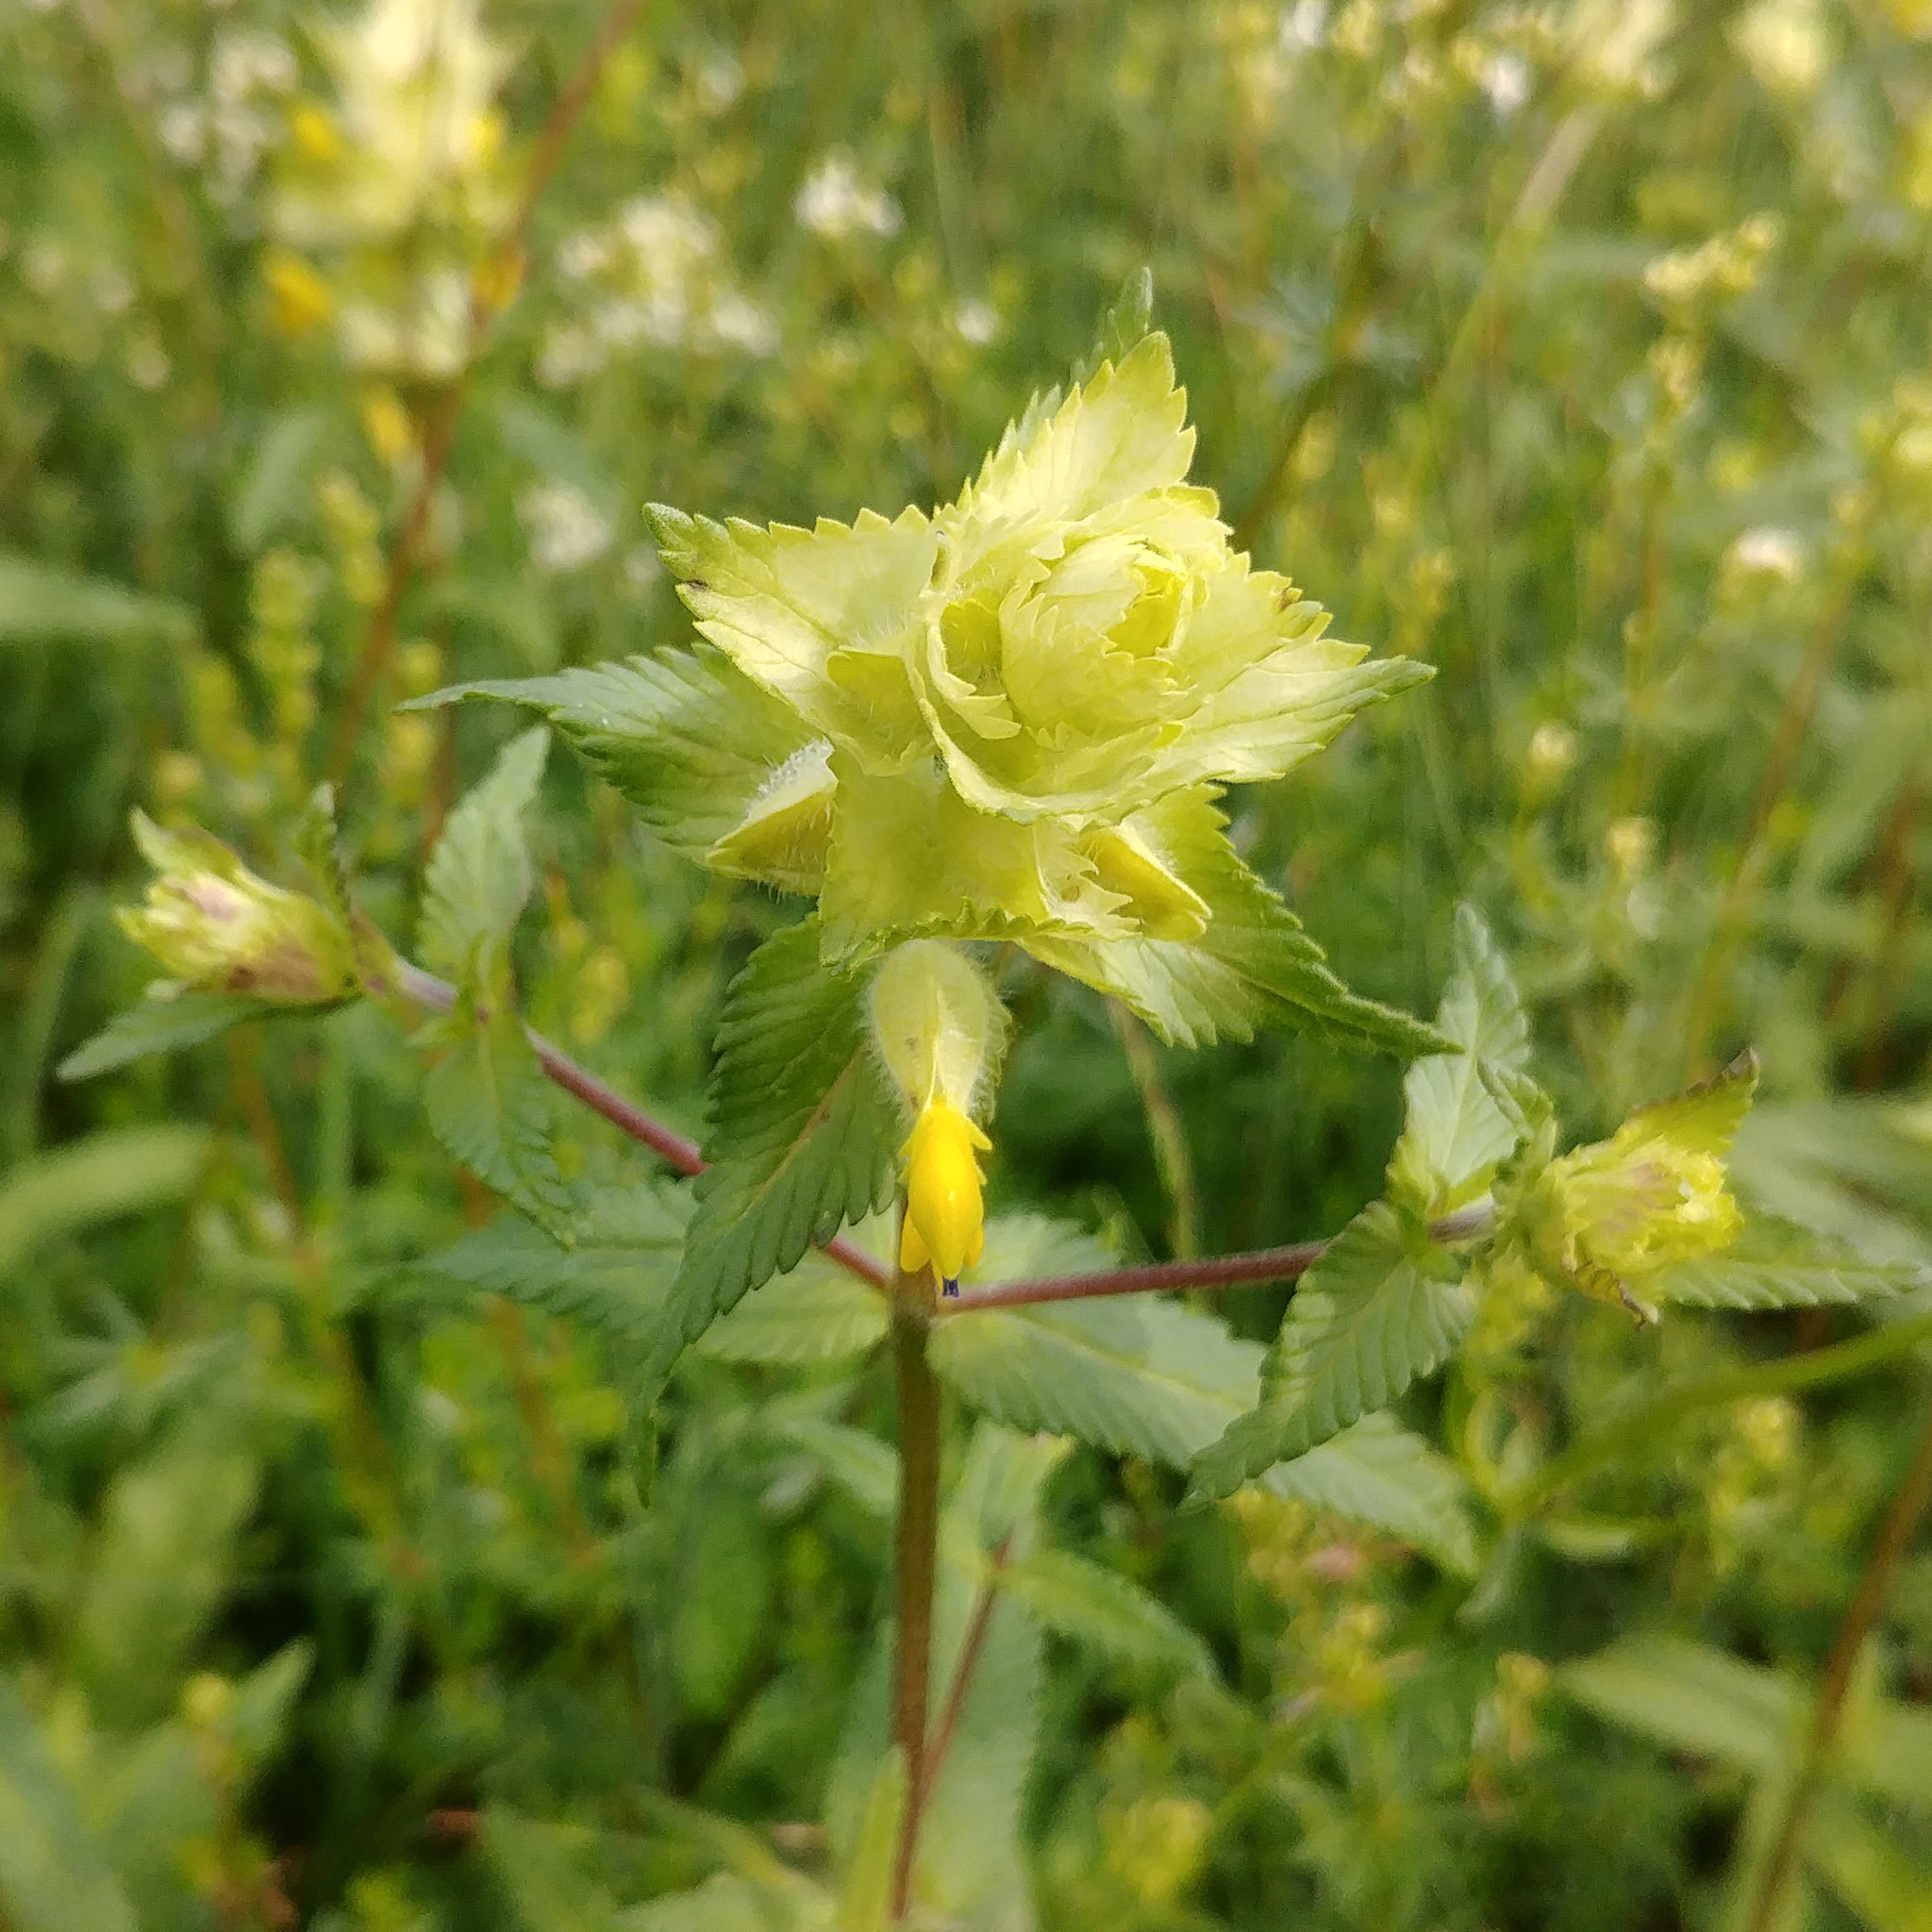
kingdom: Plantae
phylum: Tracheophyta
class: Magnoliopsida
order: Lamiales
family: Orobanchaceae
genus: Rhinanthus
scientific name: Rhinanthus alectorolophus
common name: Greater yellow-rattle
